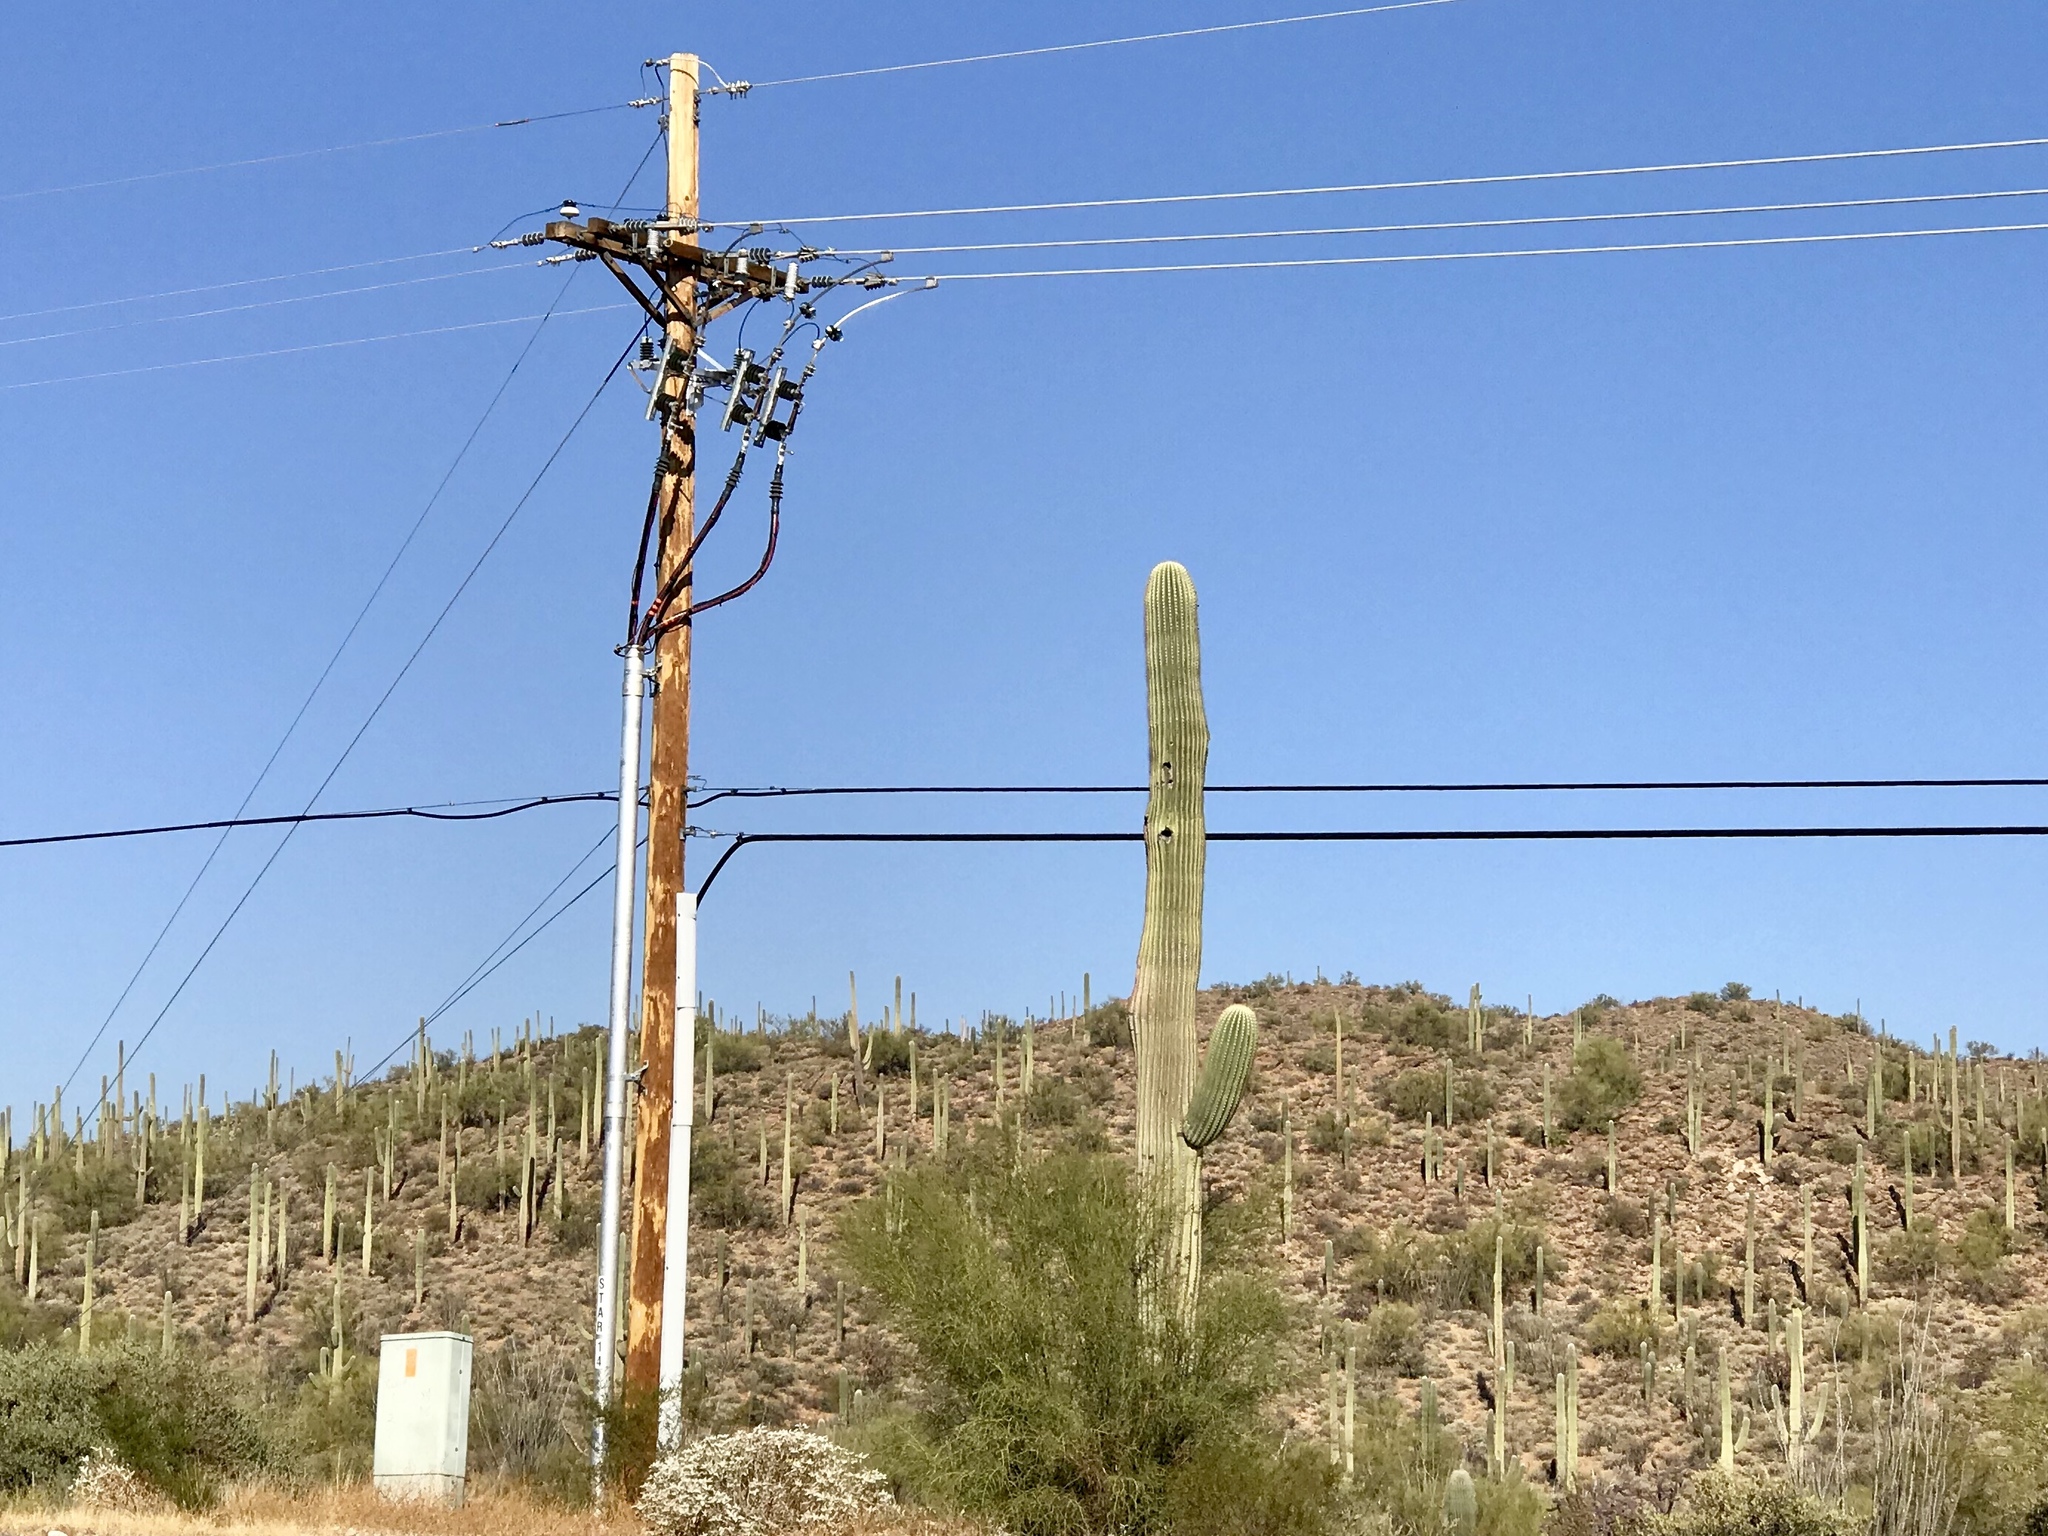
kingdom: Plantae
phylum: Tracheophyta
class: Magnoliopsida
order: Caryophyllales
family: Cactaceae
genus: Carnegiea
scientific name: Carnegiea gigantea
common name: Saguaro
